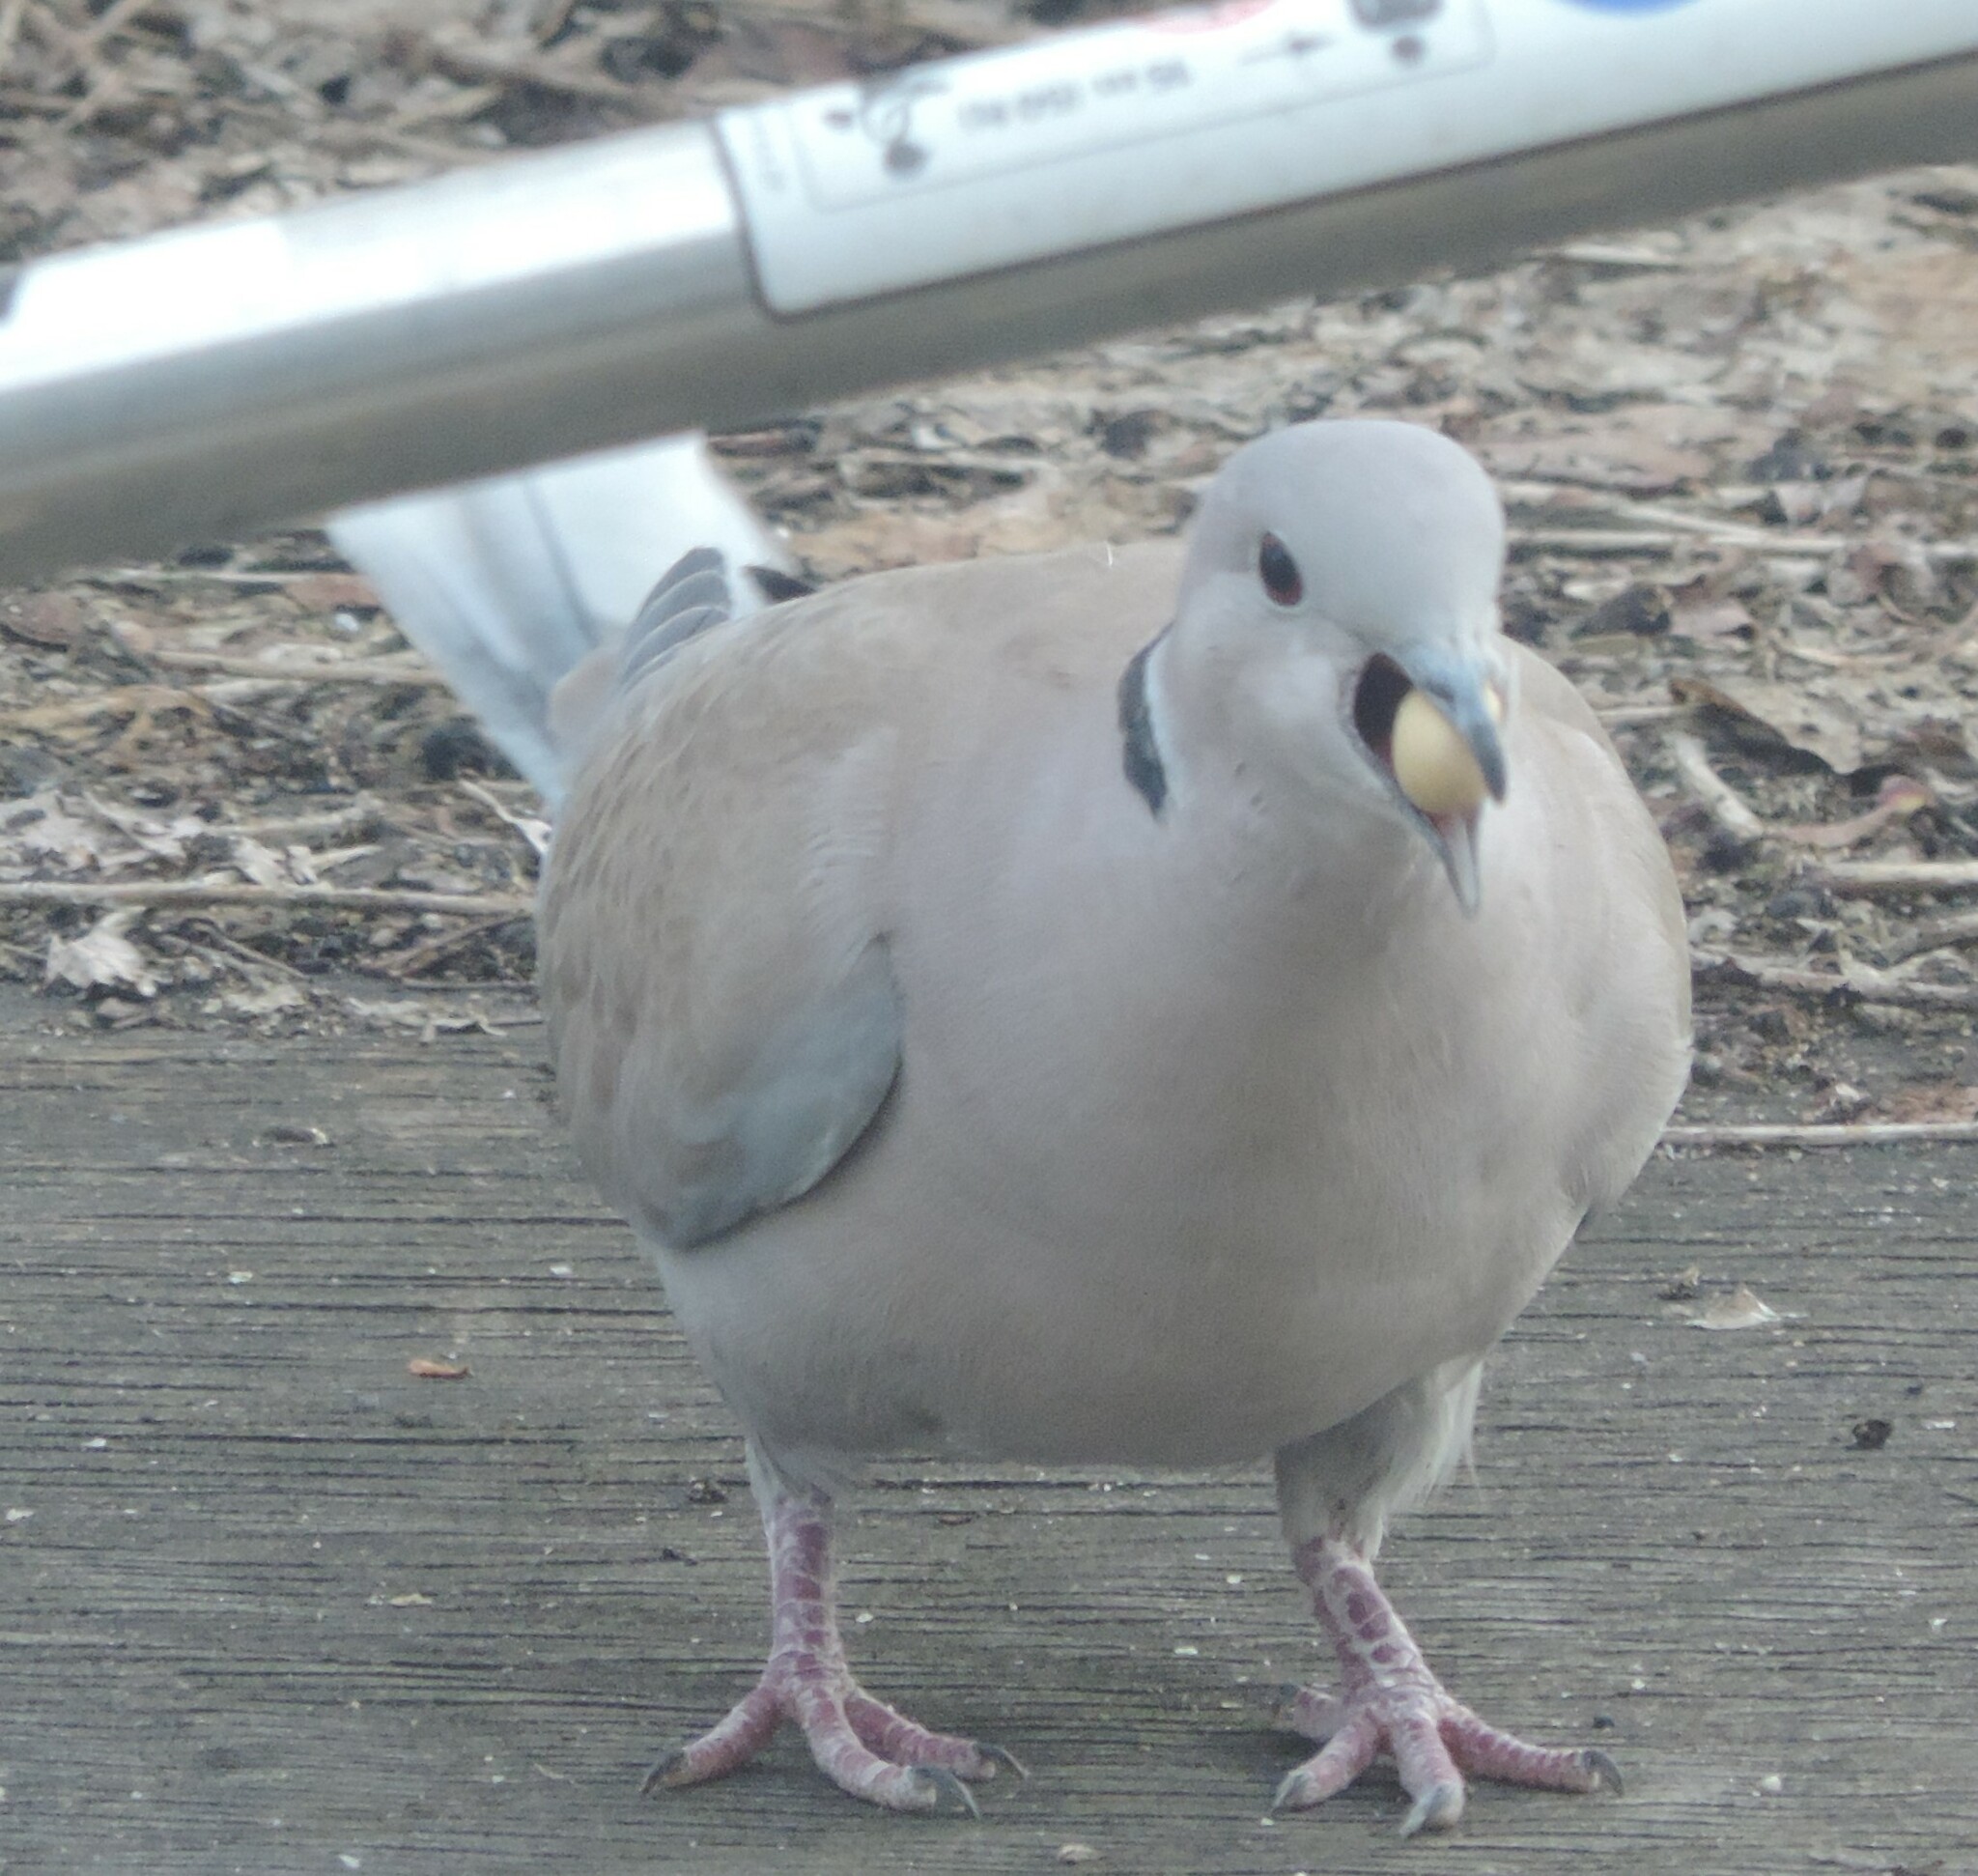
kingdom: Animalia
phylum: Chordata
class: Aves
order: Columbiformes
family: Columbidae
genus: Streptopelia
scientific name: Streptopelia decaocto
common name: Eurasian collared dove
